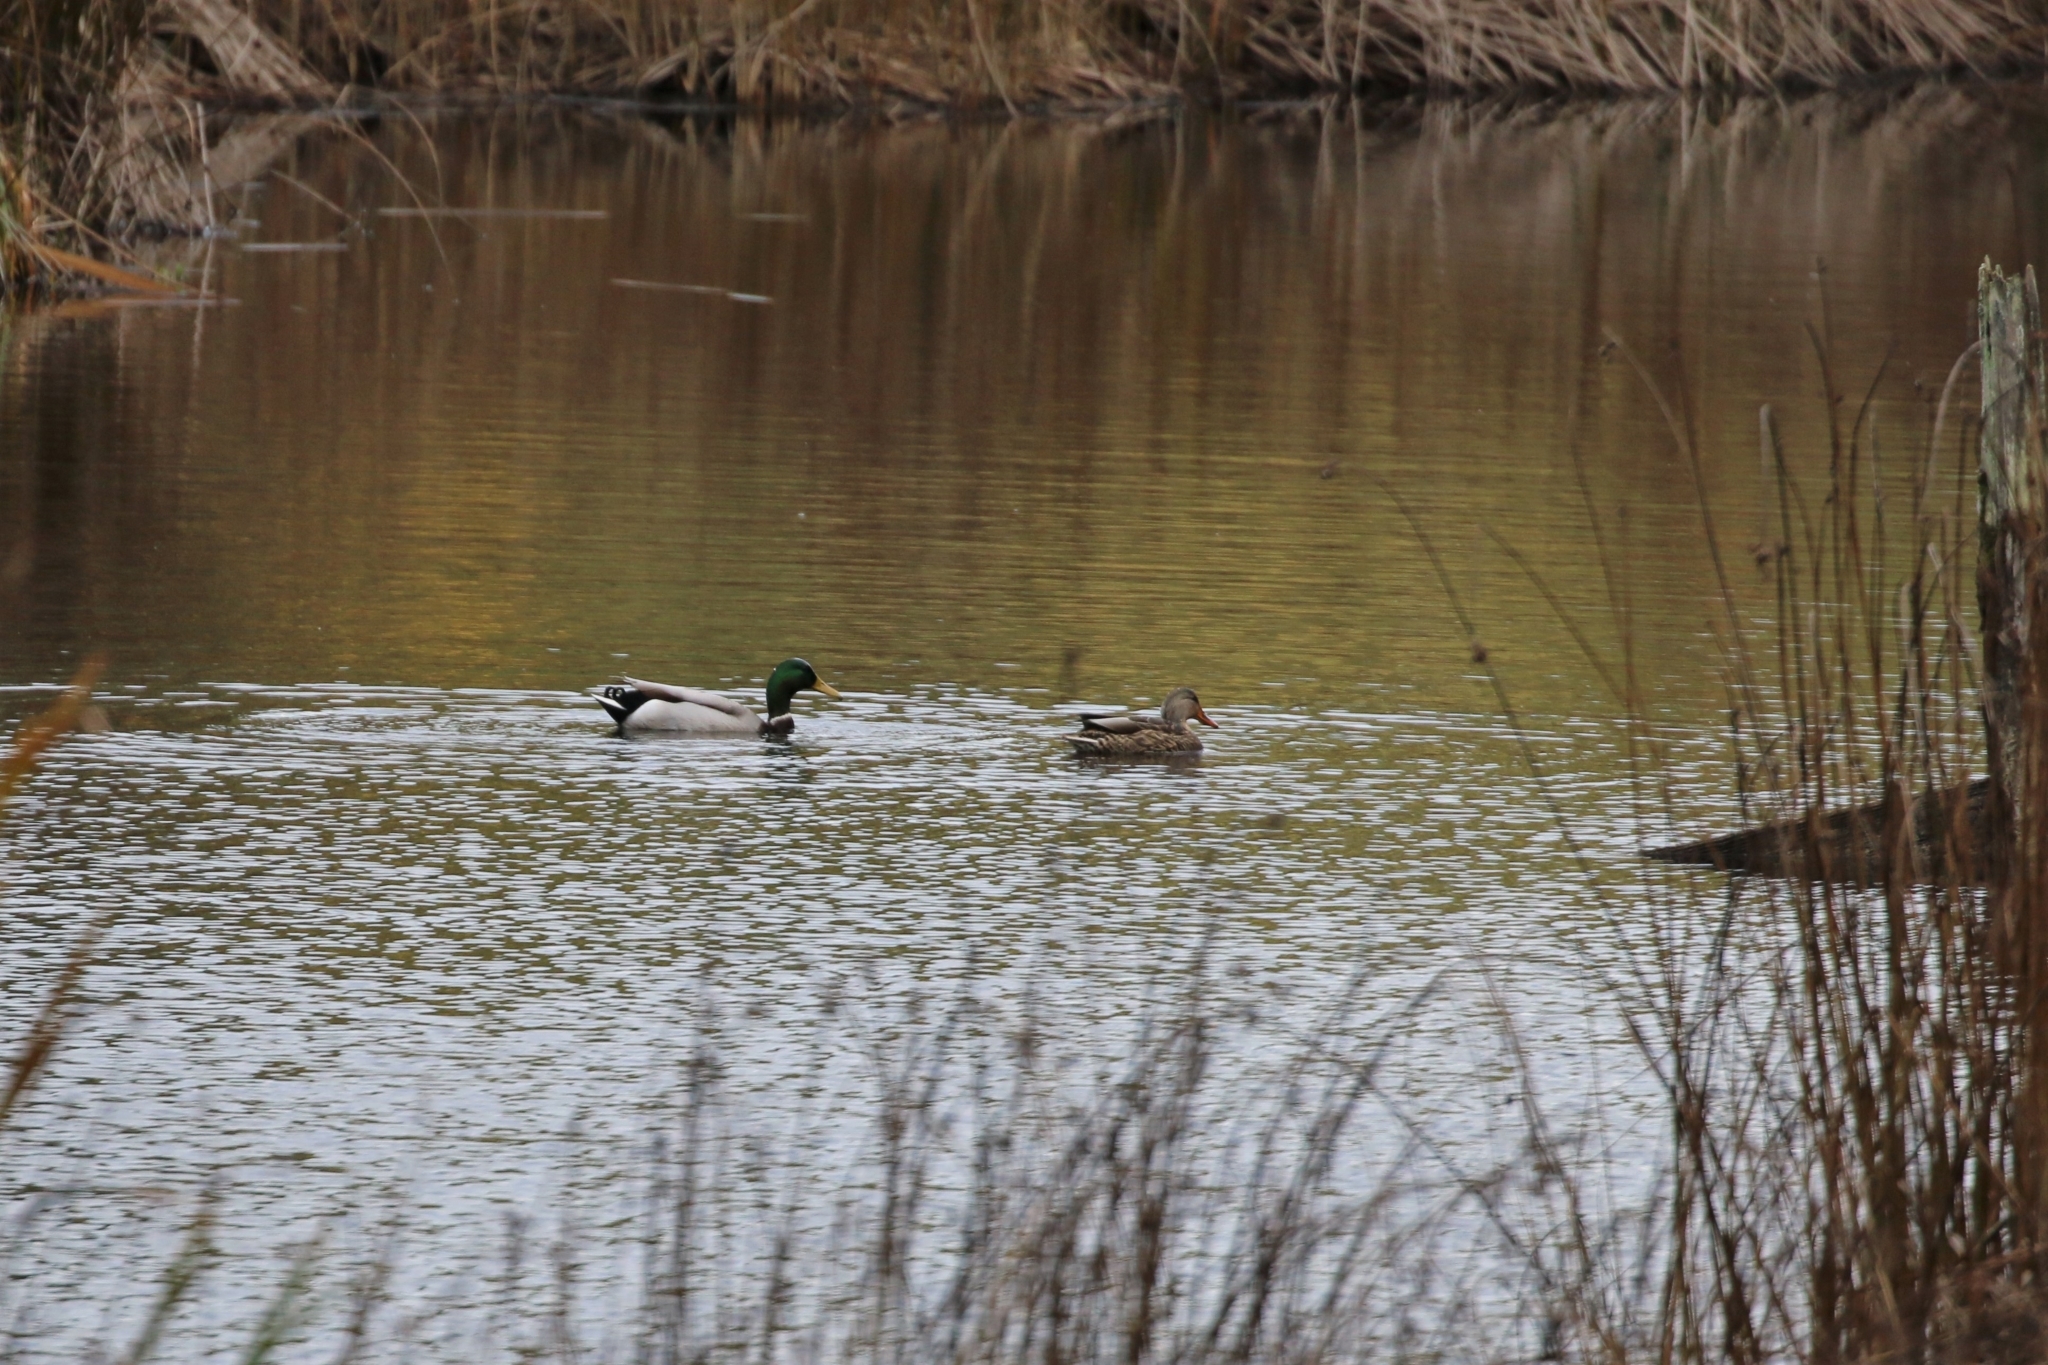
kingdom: Animalia
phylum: Chordata
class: Aves
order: Anseriformes
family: Anatidae
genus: Anas
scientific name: Anas platyrhynchos
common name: Mallard
